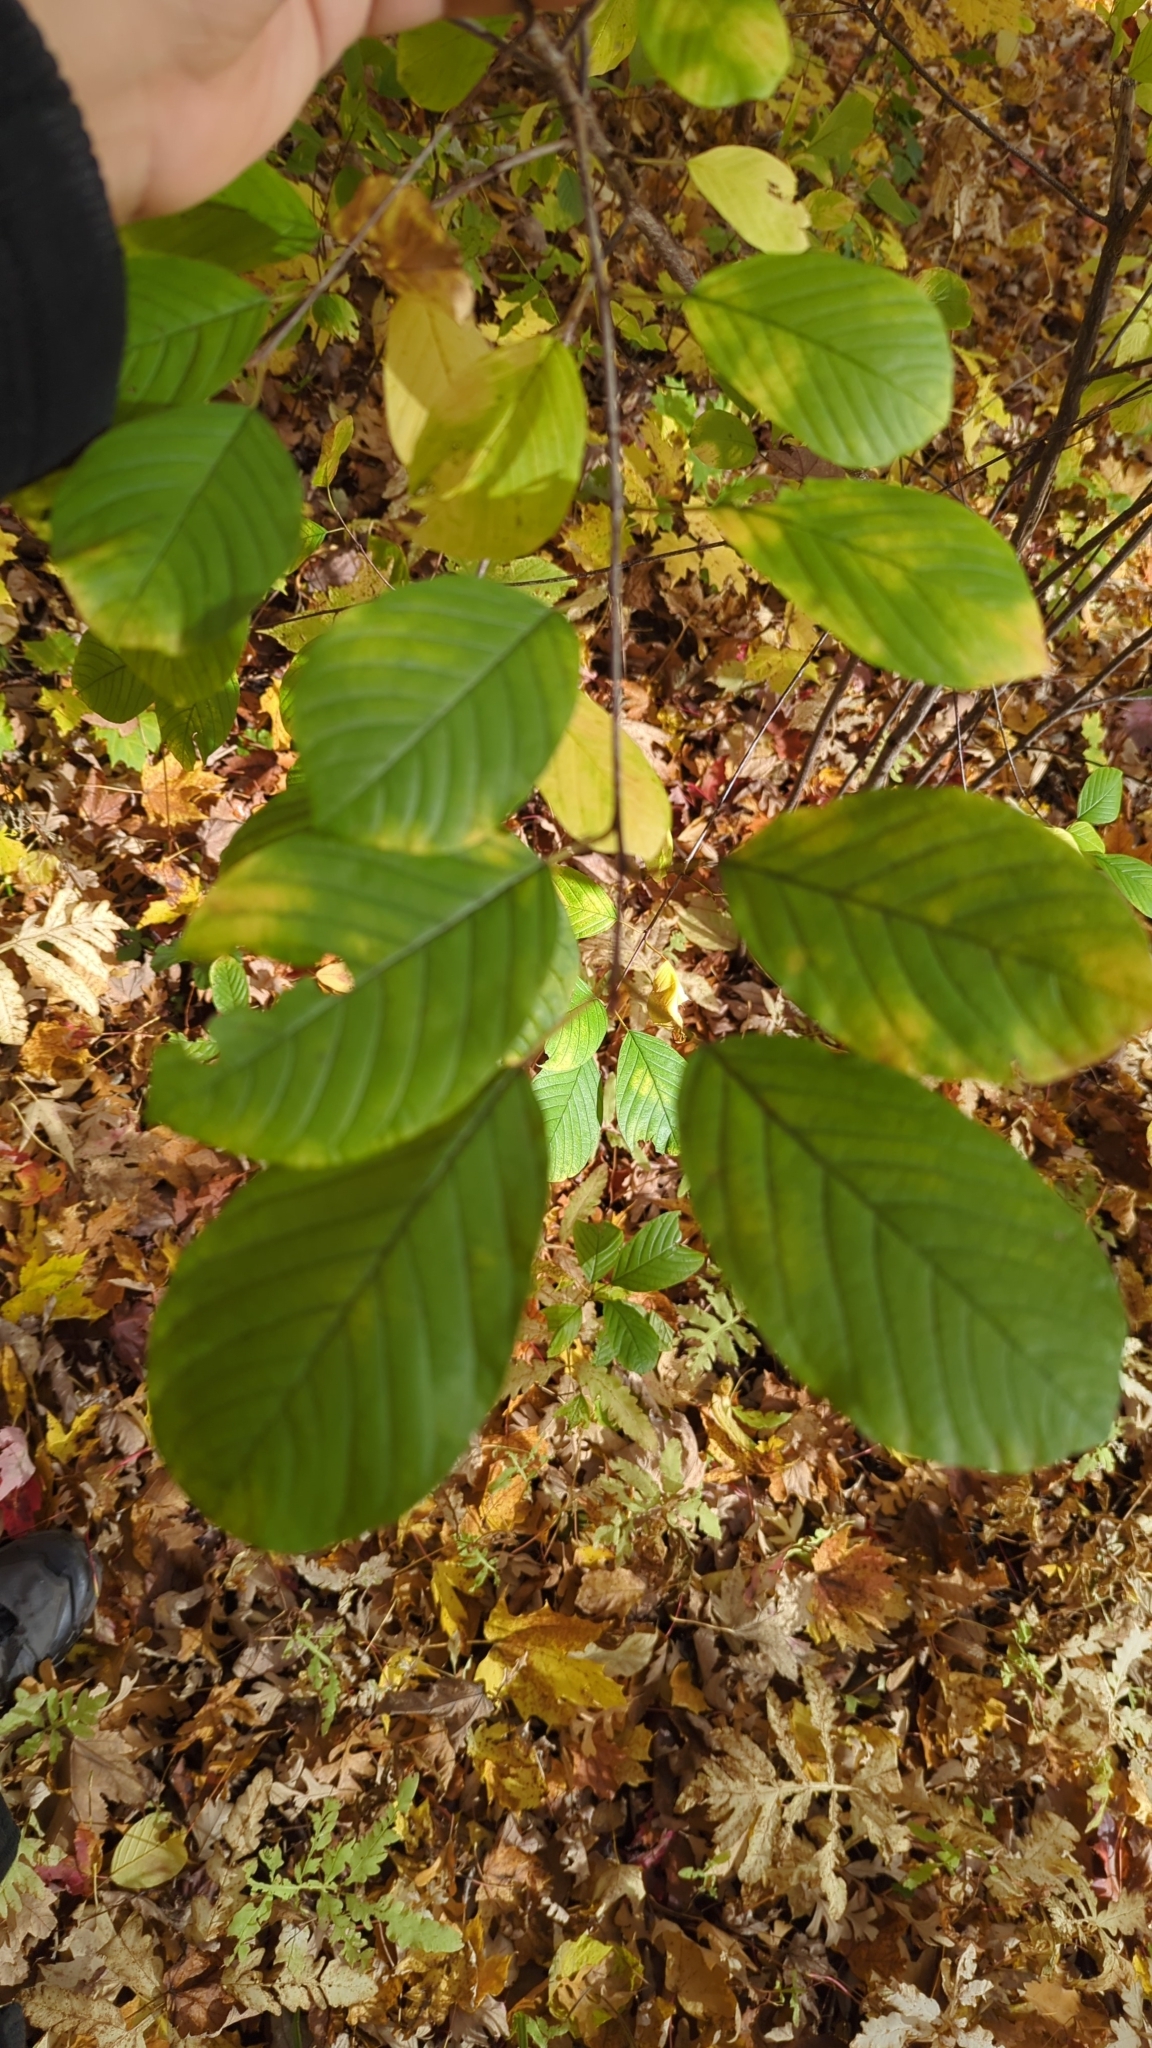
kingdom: Plantae
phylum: Tracheophyta
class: Magnoliopsida
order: Rosales
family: Rhamnaceae
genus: Frangula
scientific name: Frangula alnus
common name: Alder buckthorn
